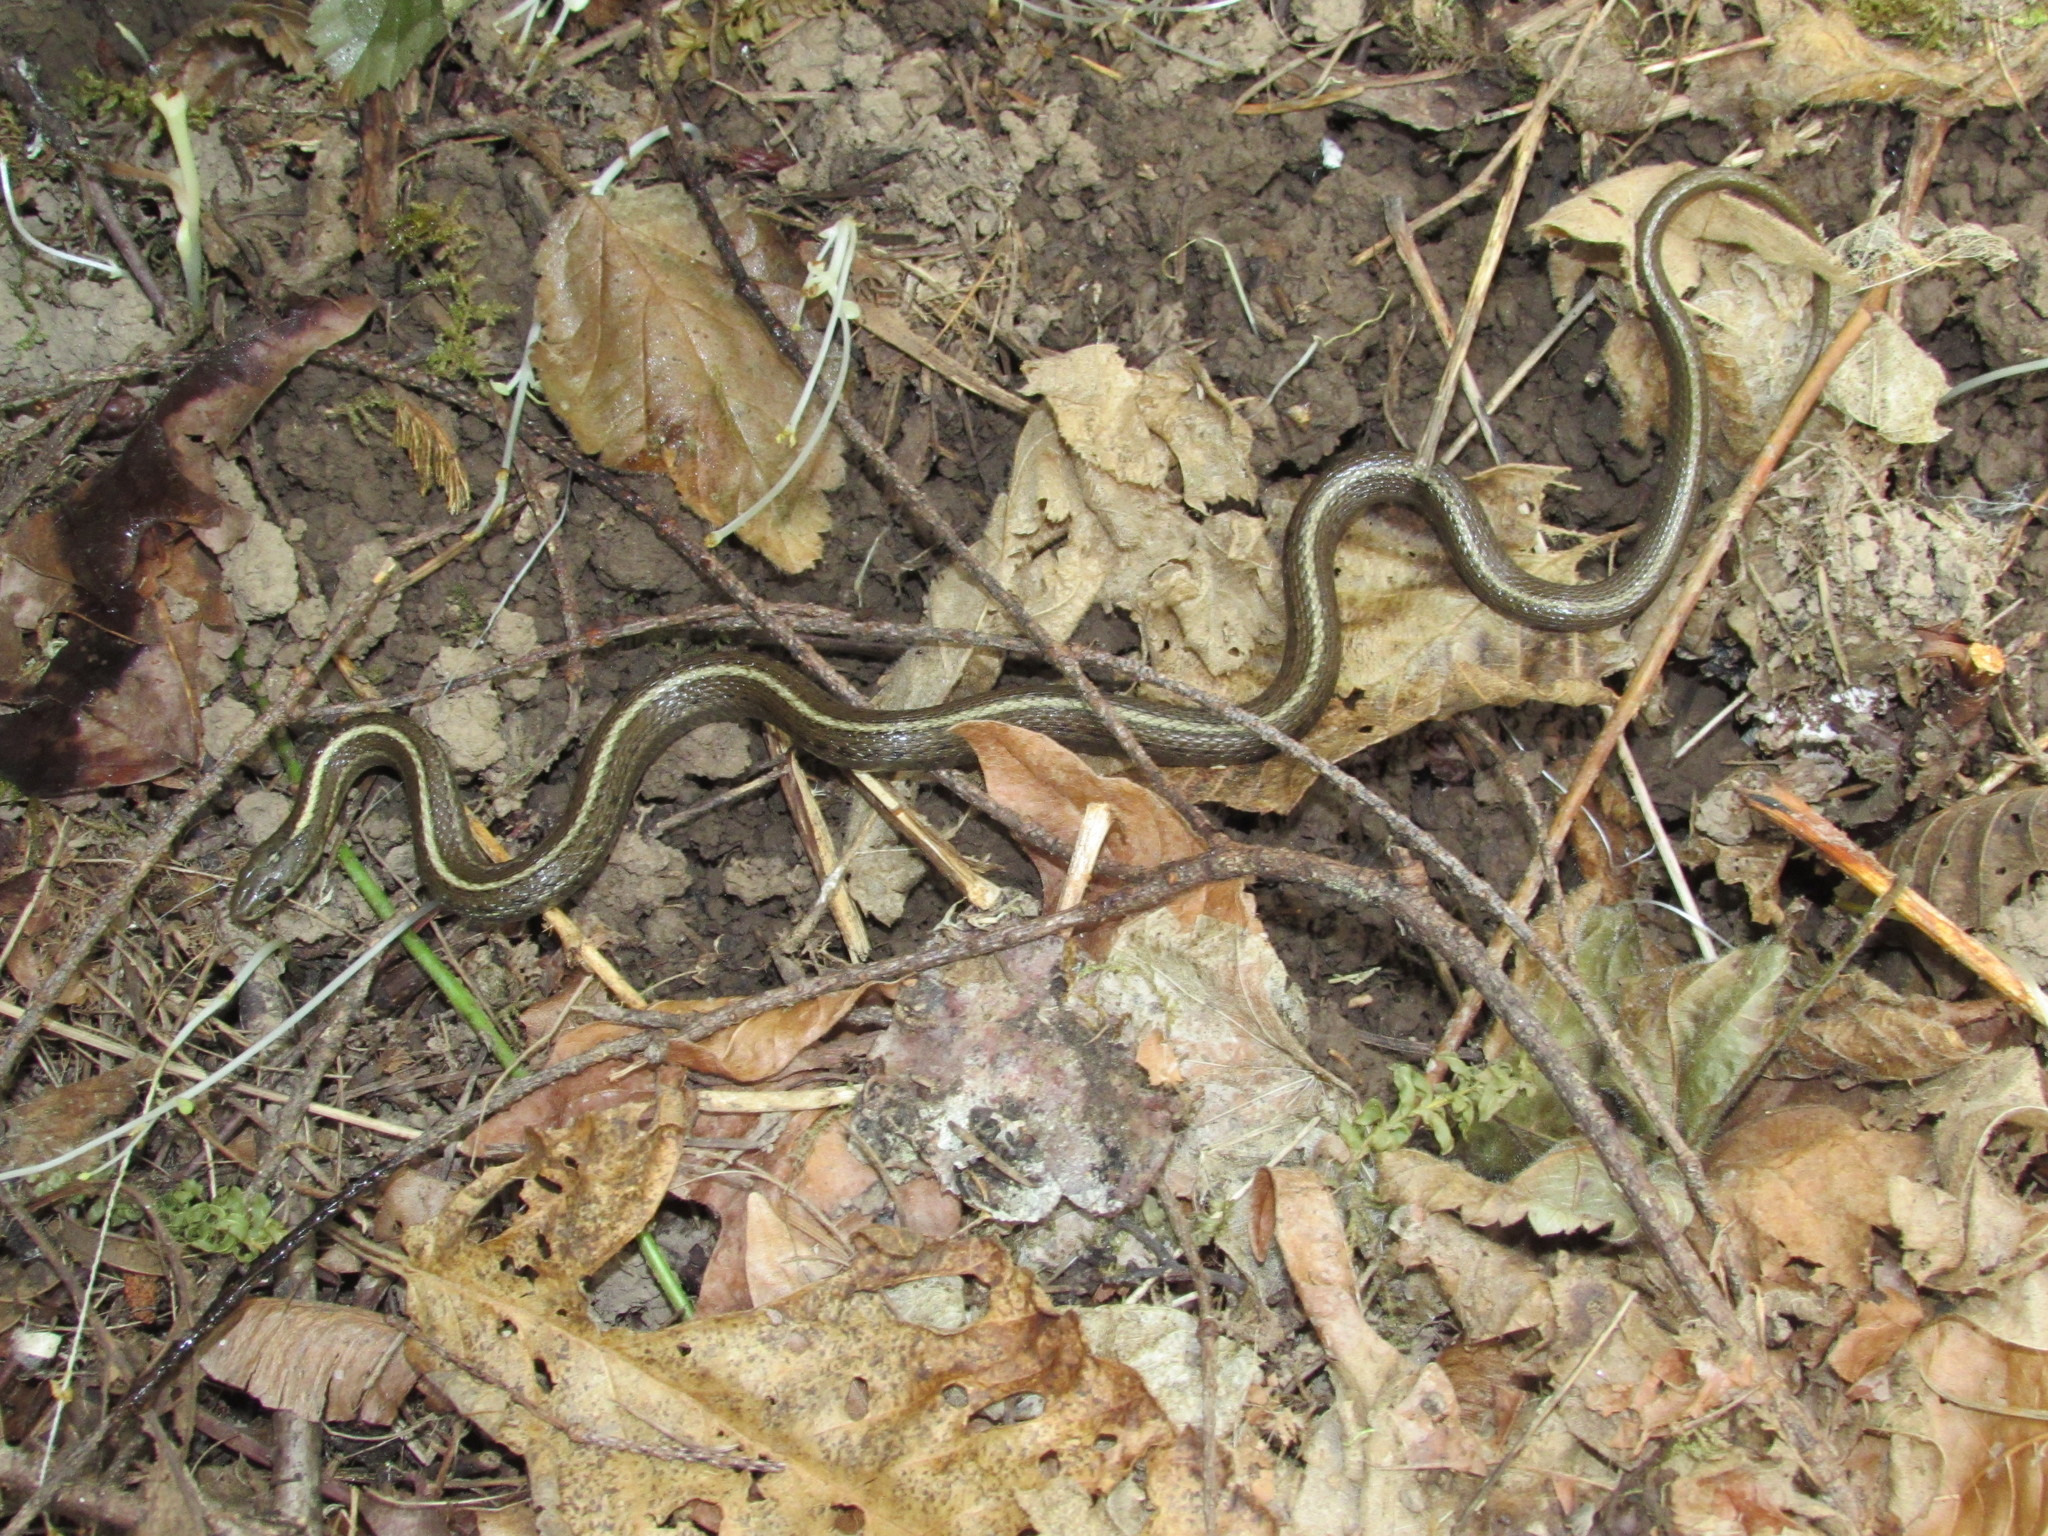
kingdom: Animalia
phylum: Chordata
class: Squamata
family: Colubridae
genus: Thamnophis
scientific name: Thamnophis ordinoides
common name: Northwestern garter snake
